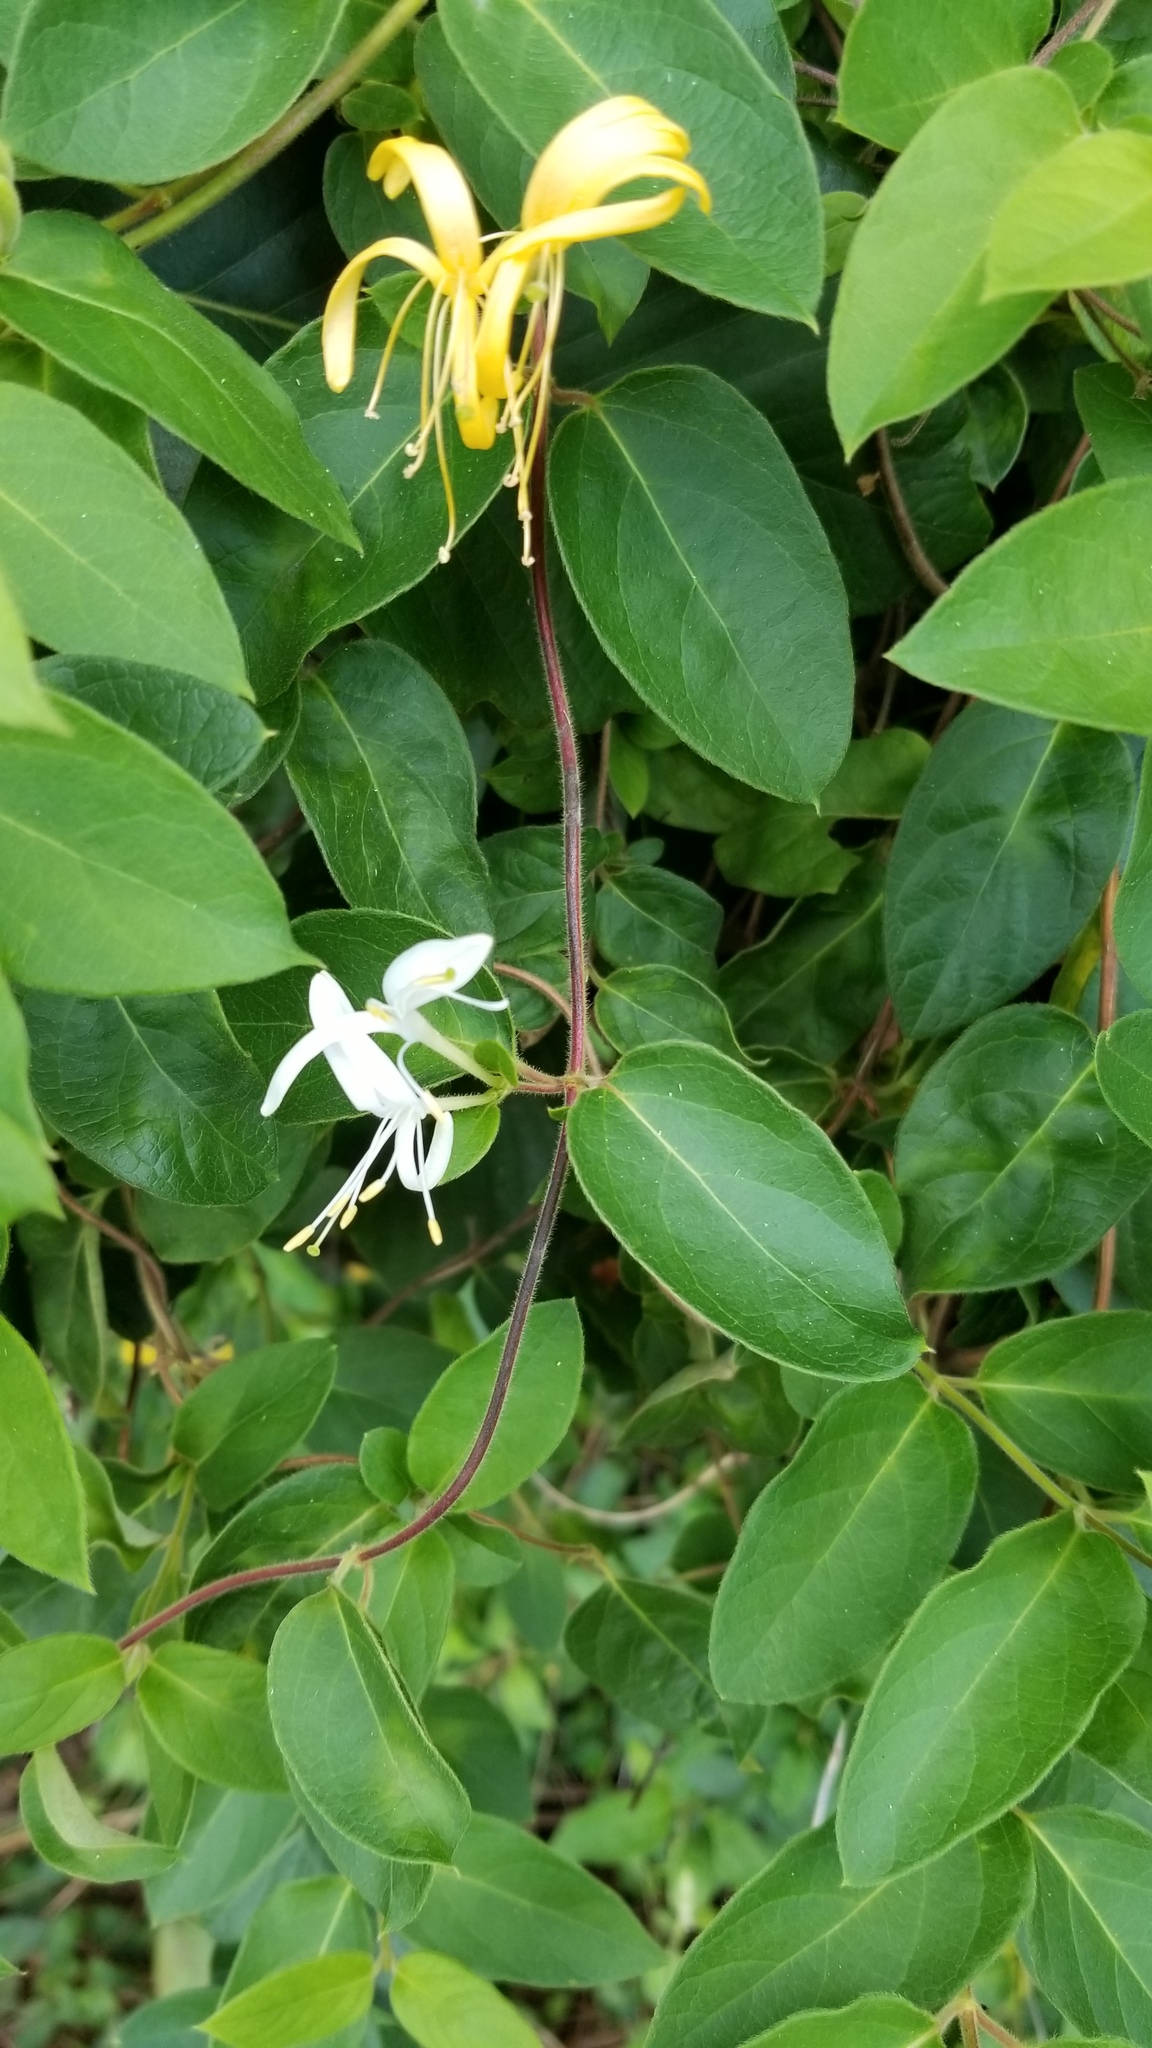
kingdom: Plantae
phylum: Tracheophyta
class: Magnoliopsida
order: Dipsacales
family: Caprifoliaceae
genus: Lonicera
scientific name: Lonicera japonica
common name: Japanese honeysuckle
